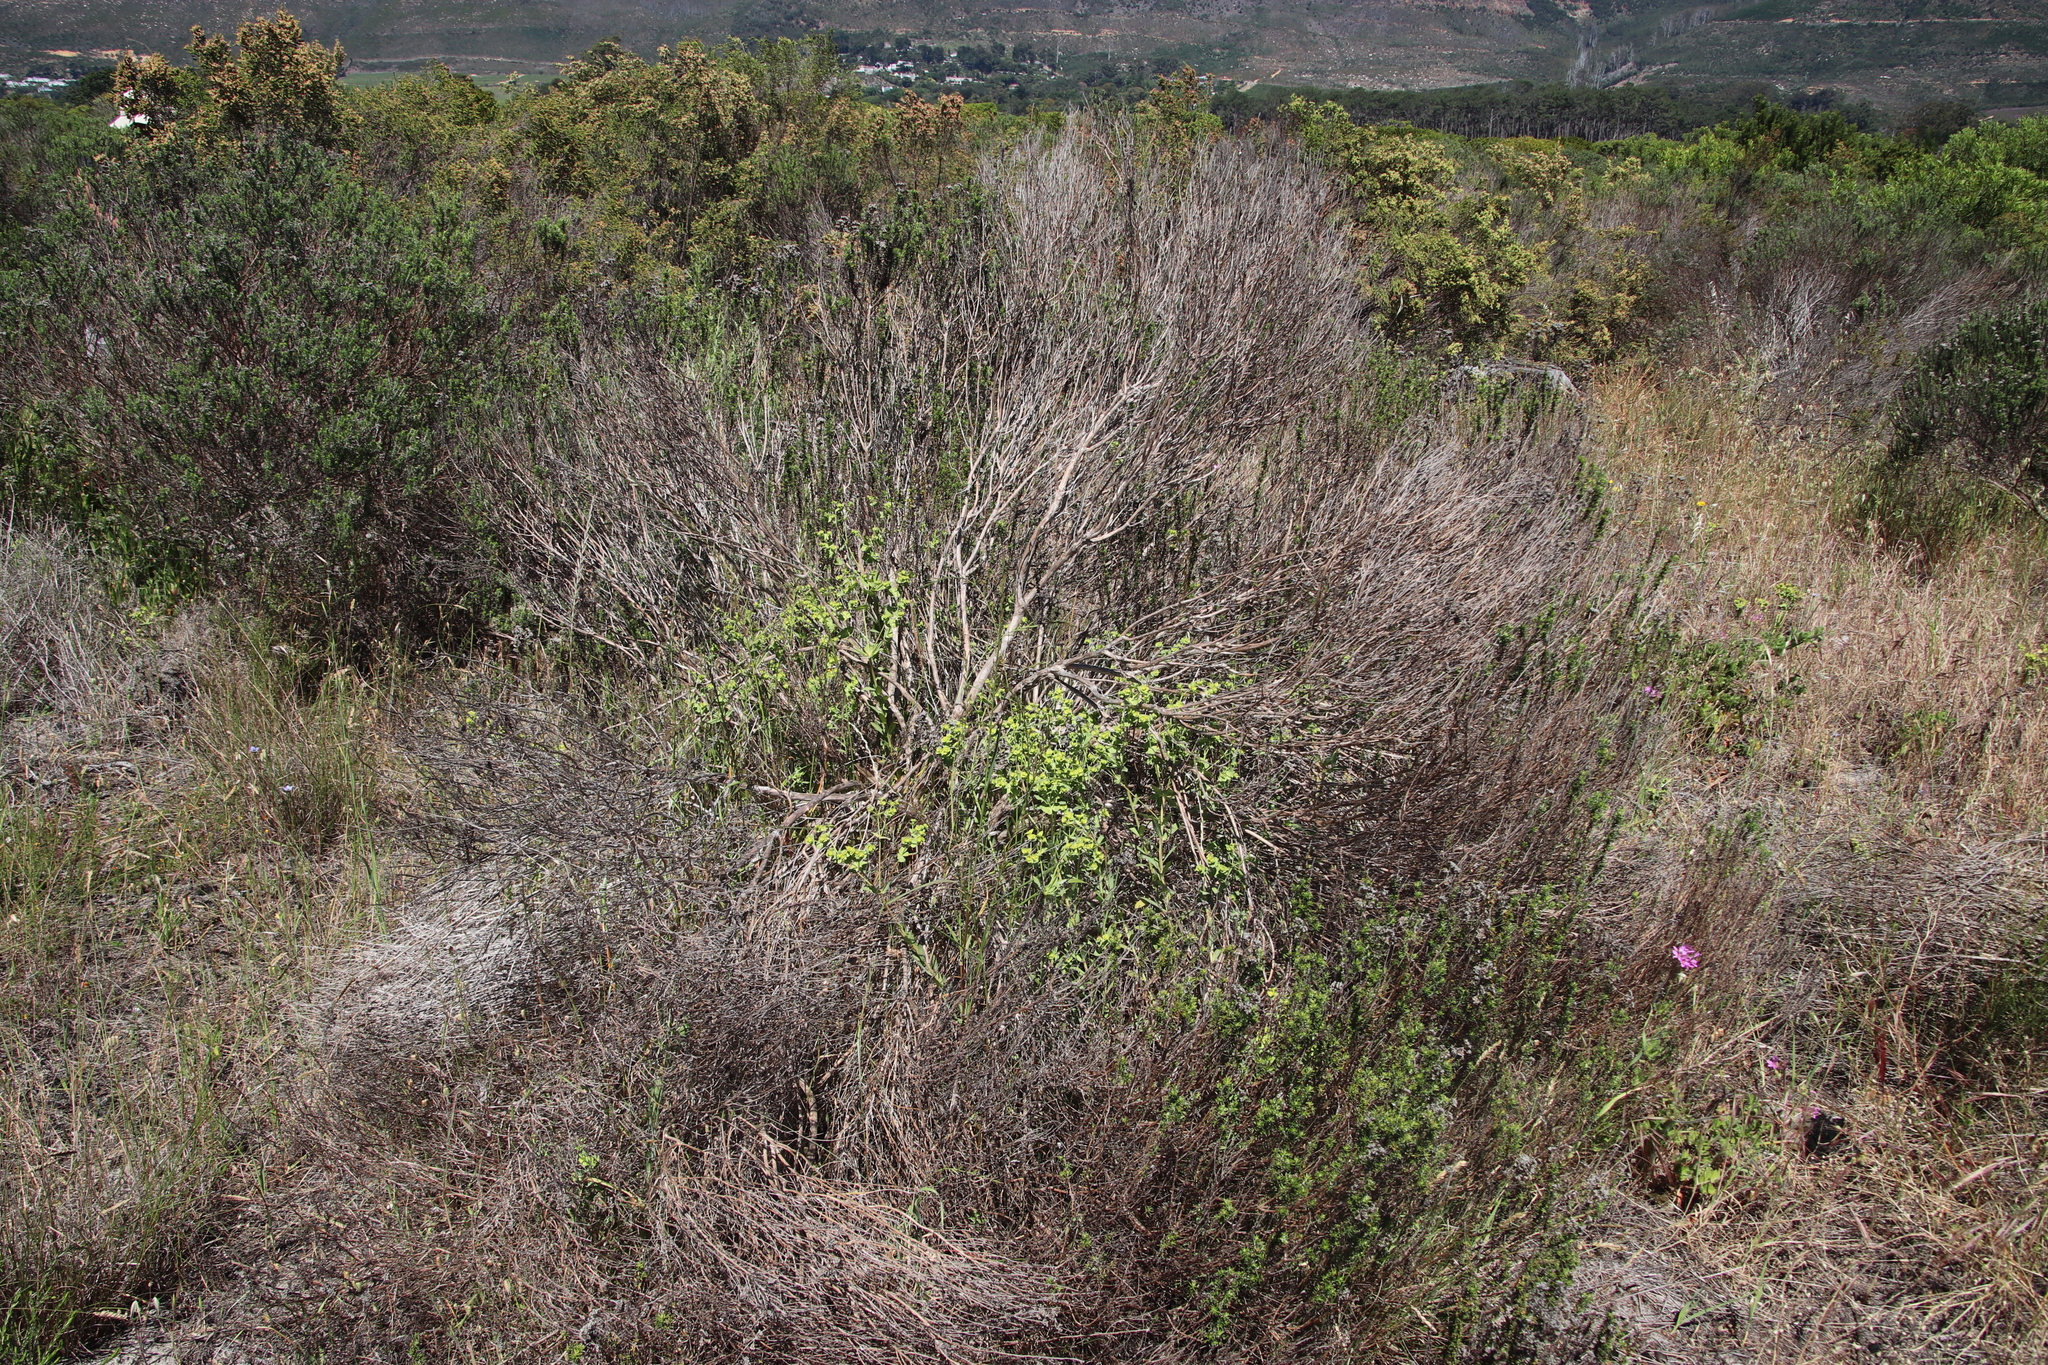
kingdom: Plantae
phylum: Tracheophyta
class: Magnoliopsida
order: Malpighiales
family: Euphorbiaceae
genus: Euphorbia
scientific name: Euphorbia terracina
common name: Geraldton carnation weed
